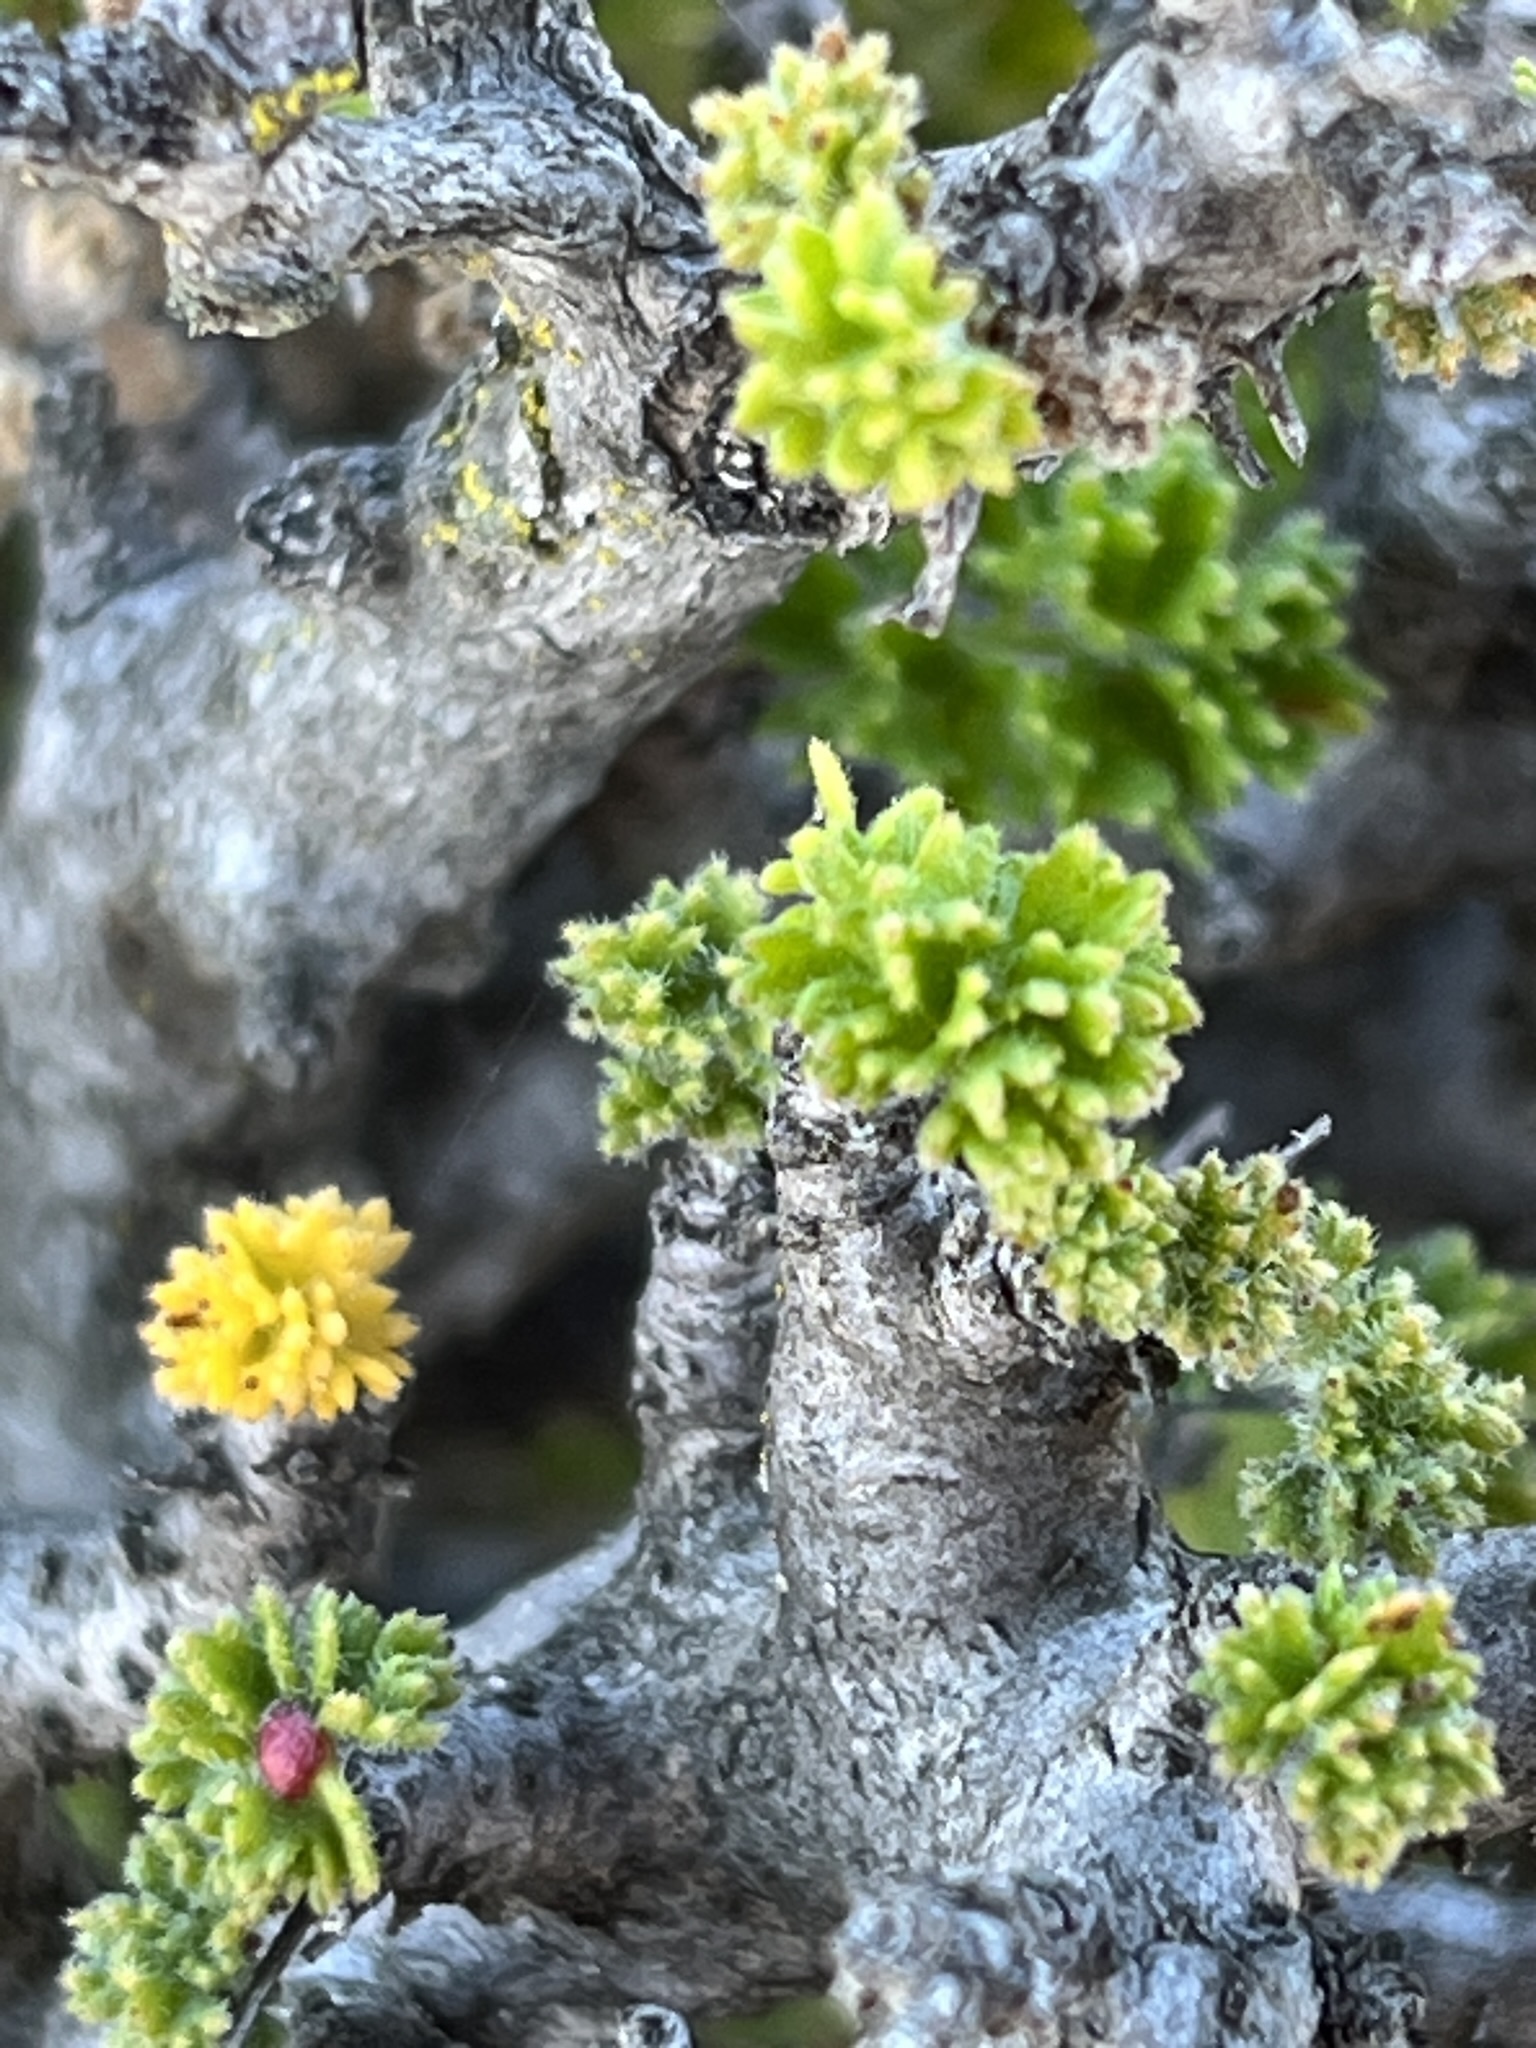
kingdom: Plantae
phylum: Tracheophyta
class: Magnoliopsida
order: Geraniales
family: Geraniaceae
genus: Pelargonium
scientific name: Pelargonium alternans
